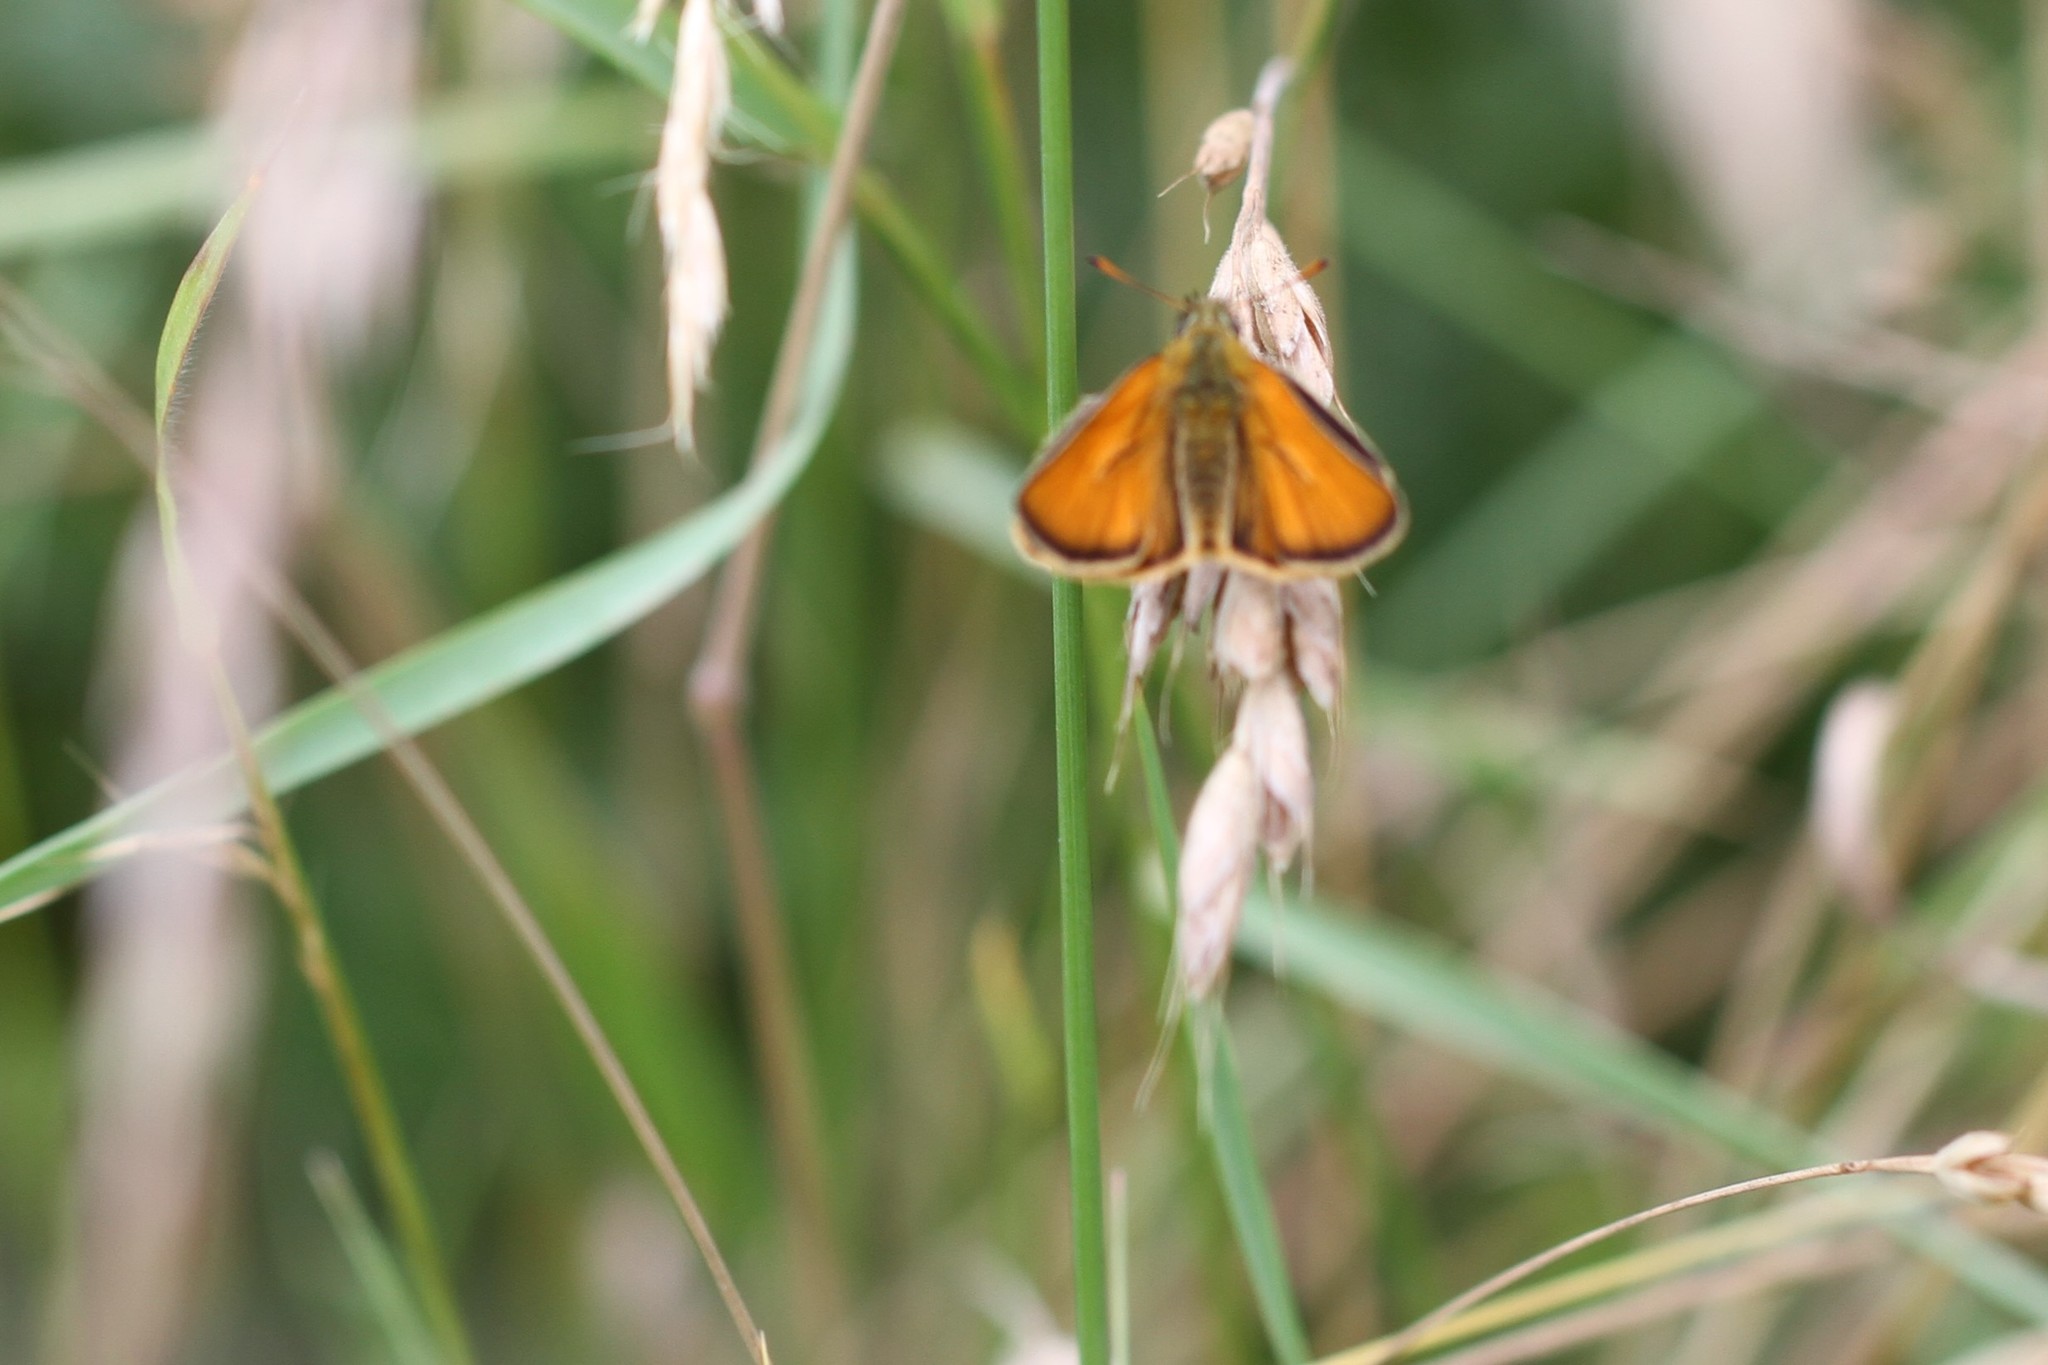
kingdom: Animalia
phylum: Arthropoda
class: Insecta
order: Lepidoptera
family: Hesperiidae
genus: Thymelicus
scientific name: Thymelicus sylvestris
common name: Small skipper
